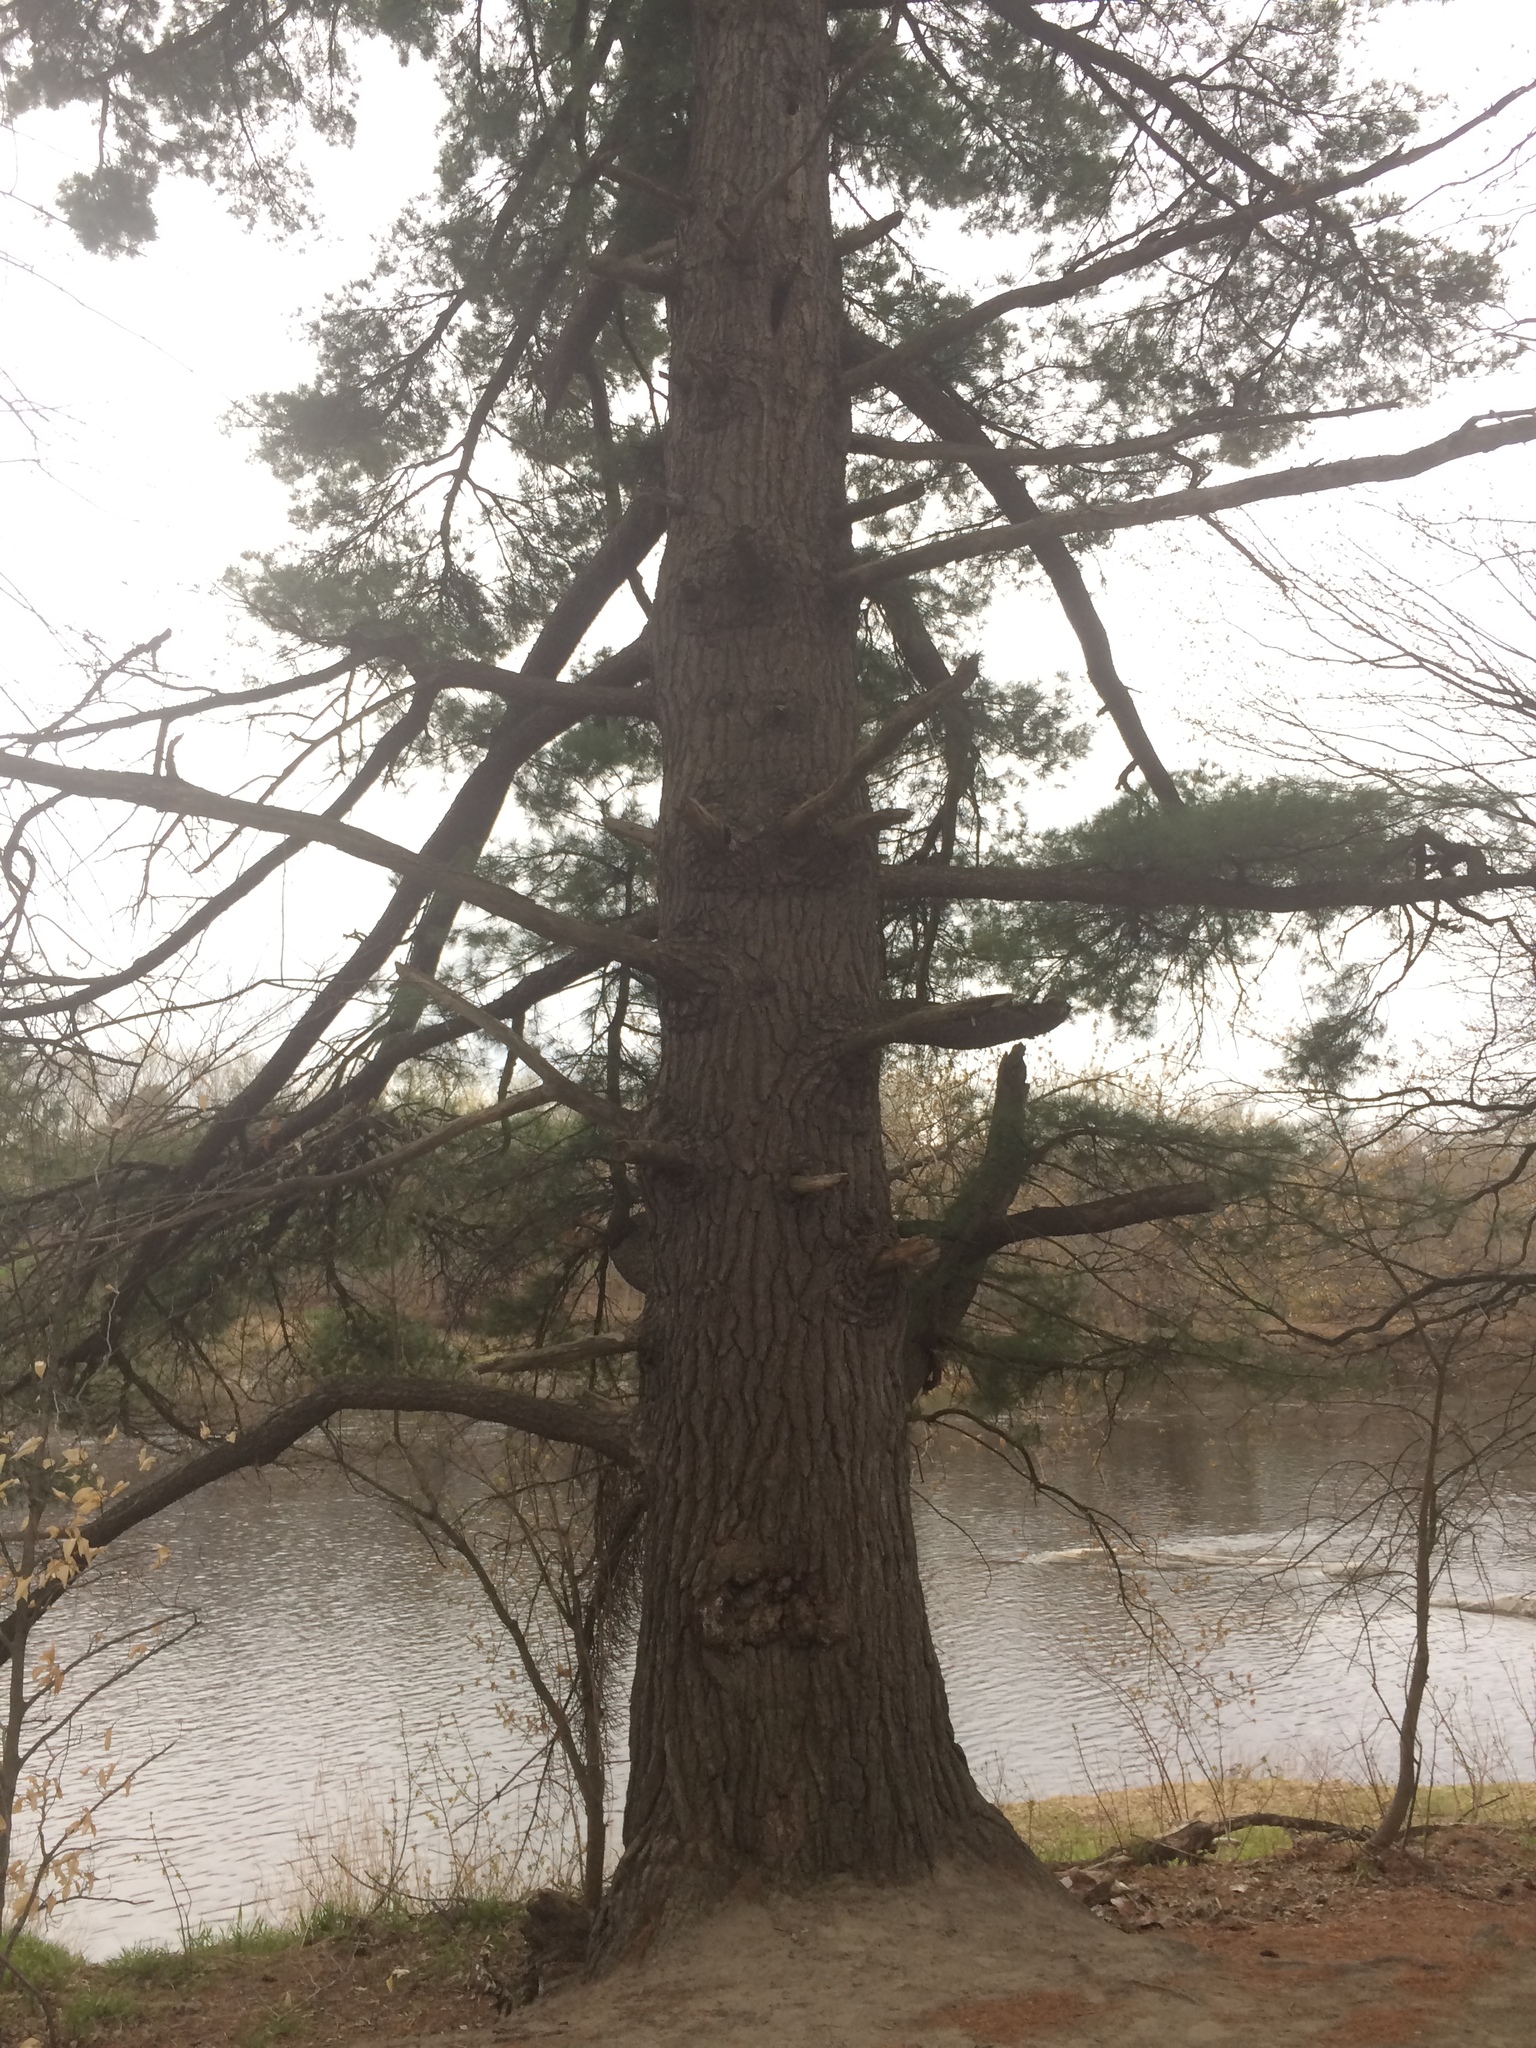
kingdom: Plantae
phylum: Tracheophyta
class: Pinopsida
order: Pinales
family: Pinaceae
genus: Pinus
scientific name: Pinus strobus
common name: Weymouth pine
